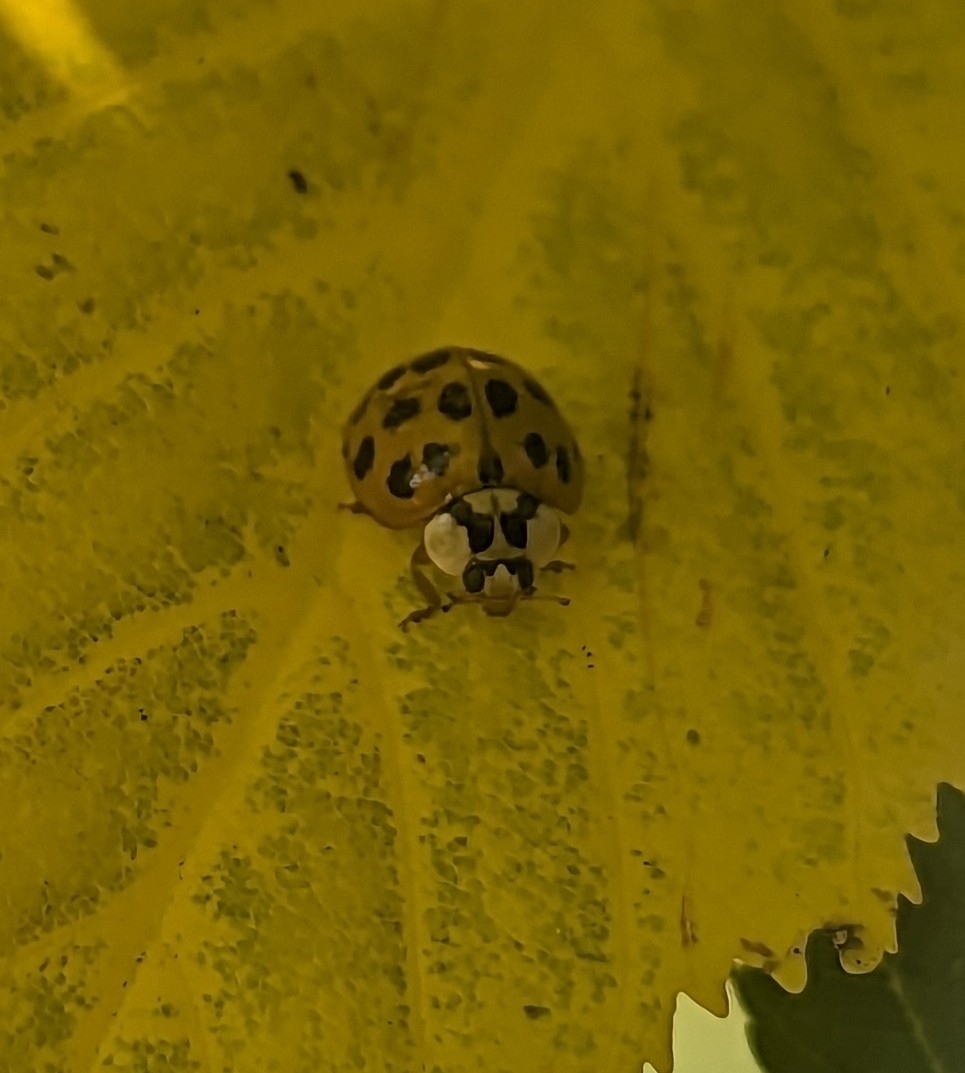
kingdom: Animalia
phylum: Arthropoda
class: Insecta
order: Coleoptera
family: Coccinellidae
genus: Harmonia
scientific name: Harmonia axyridis
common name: Harlequin ladybird
